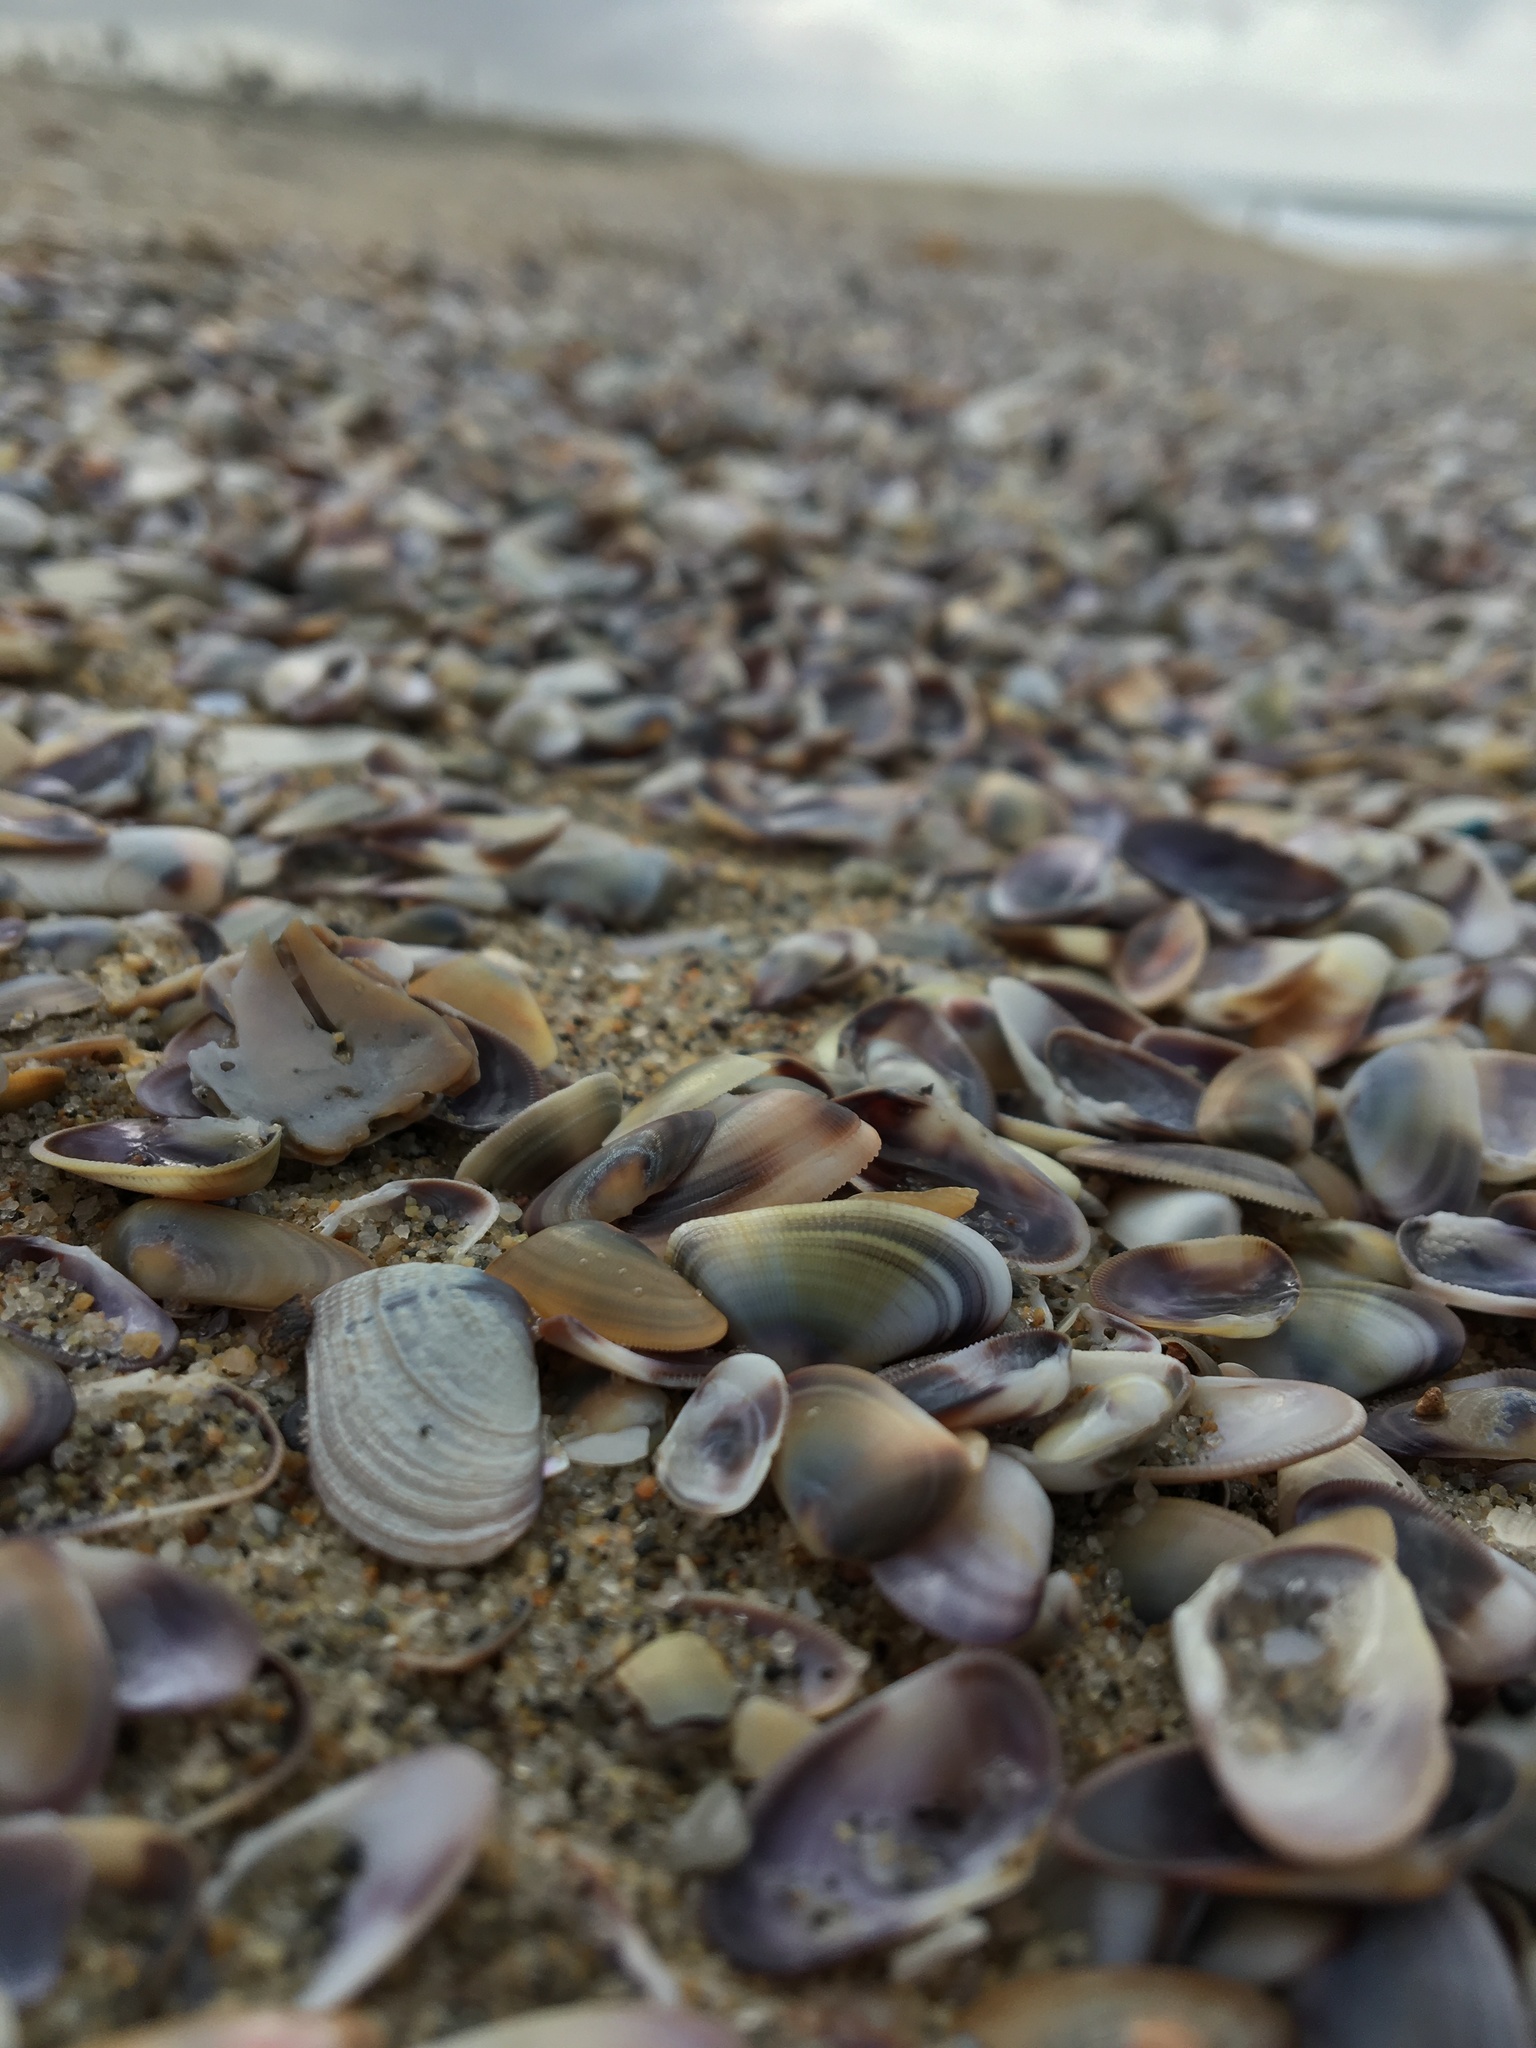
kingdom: Animalia
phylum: Mollusca
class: Bivalvia
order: Cardiida
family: Donacidae
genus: Donax
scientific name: Donax gouldii
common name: Gould beanclam
